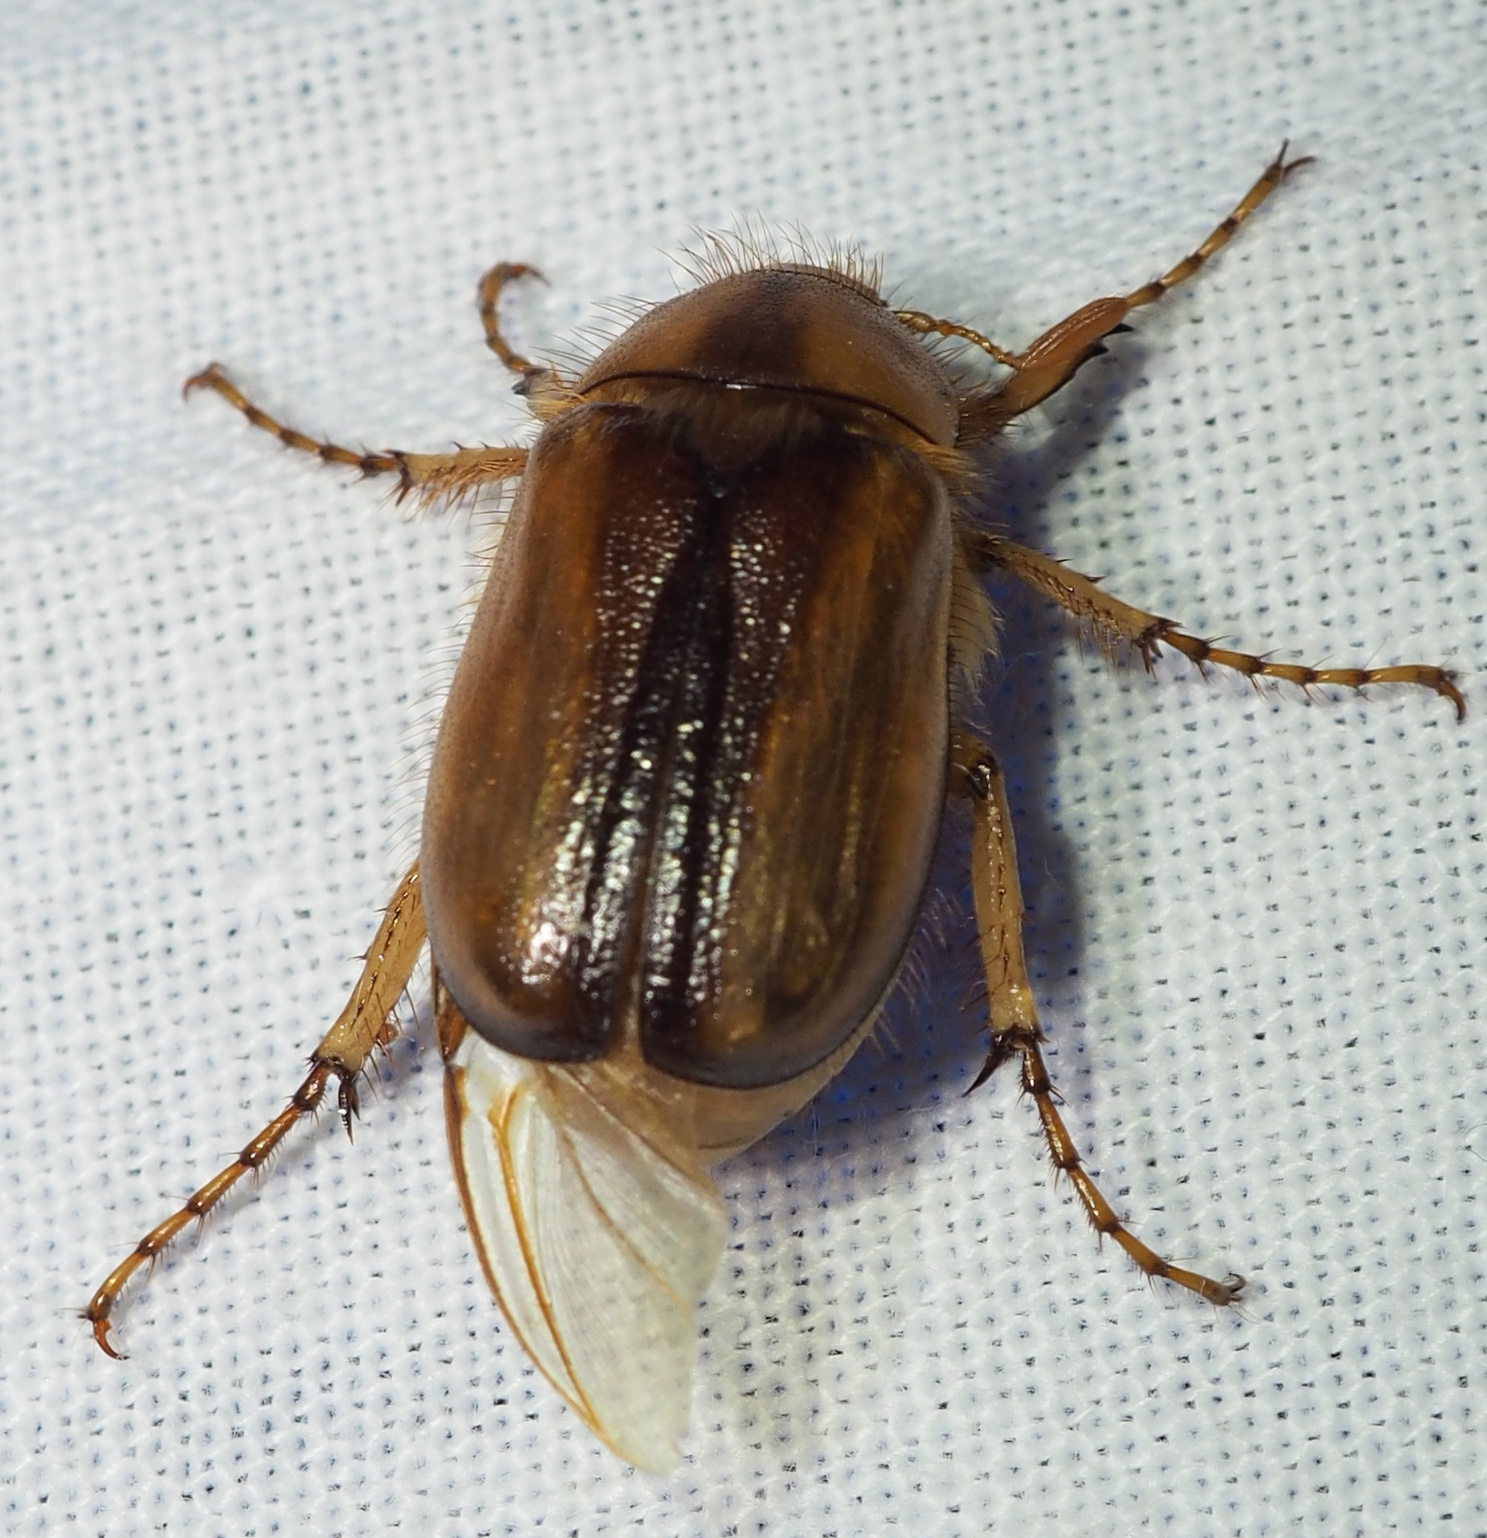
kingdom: Animalia
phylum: Arthropoda
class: Insecta
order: Coleoptera
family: Scarabaeidae
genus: Rhizotrogus
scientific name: Rhizotrogus aestivus
